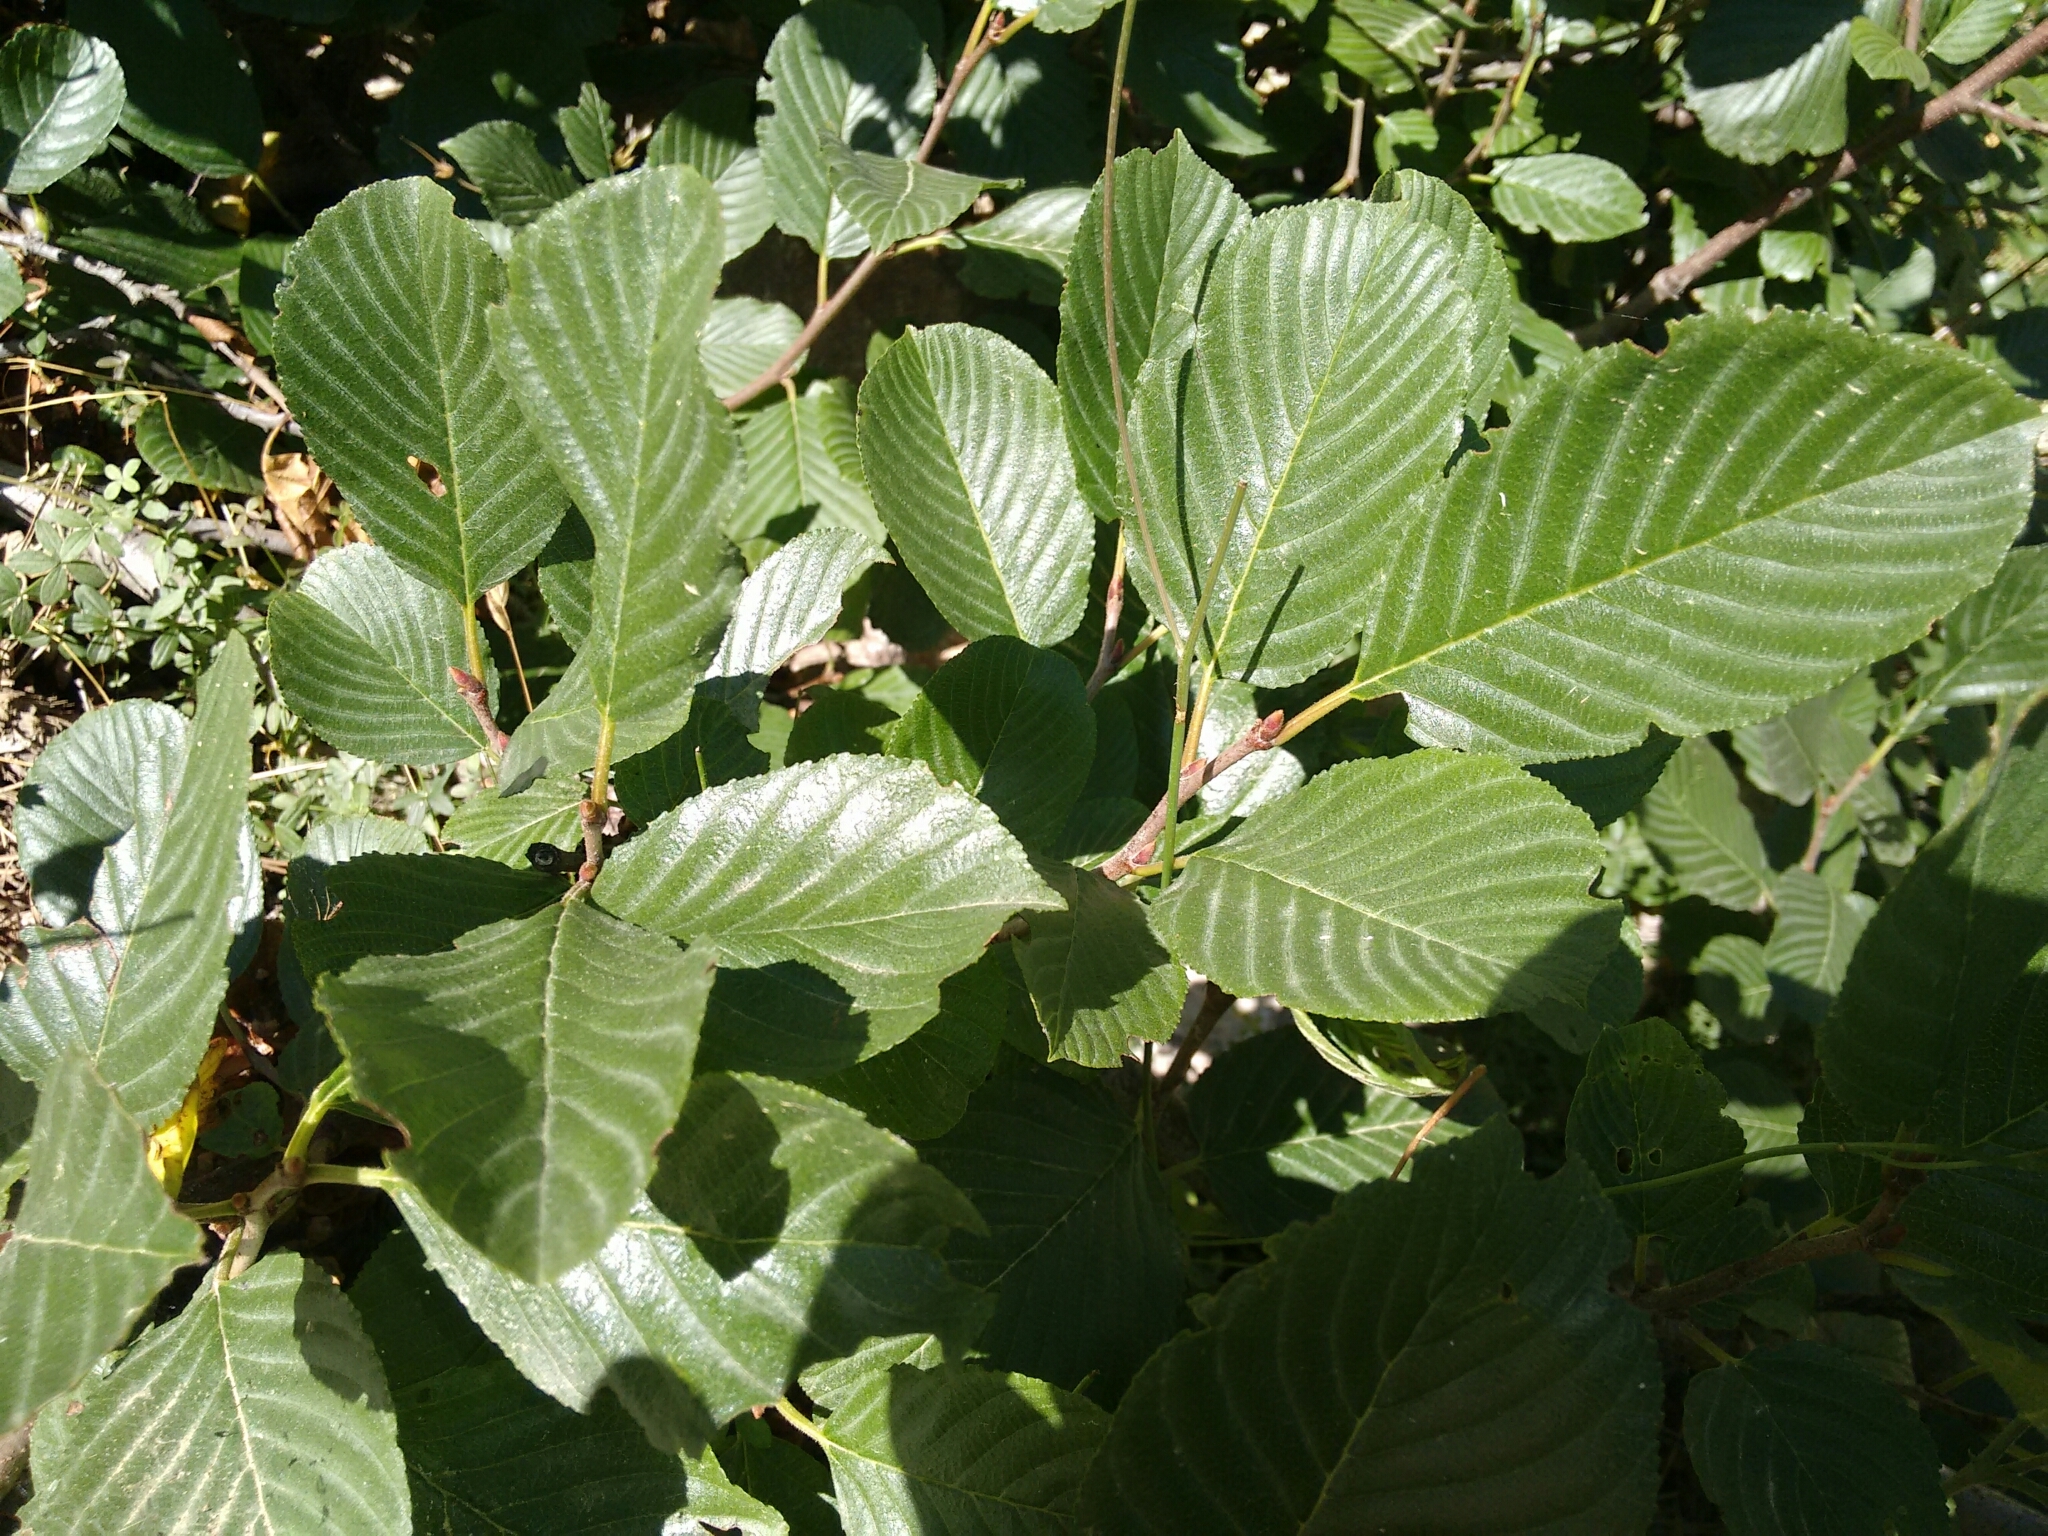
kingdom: Plantae
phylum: Tracheophyta
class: Magnoliopsida
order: Rosales
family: Rhamnaceae
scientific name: Rhamnaceae
